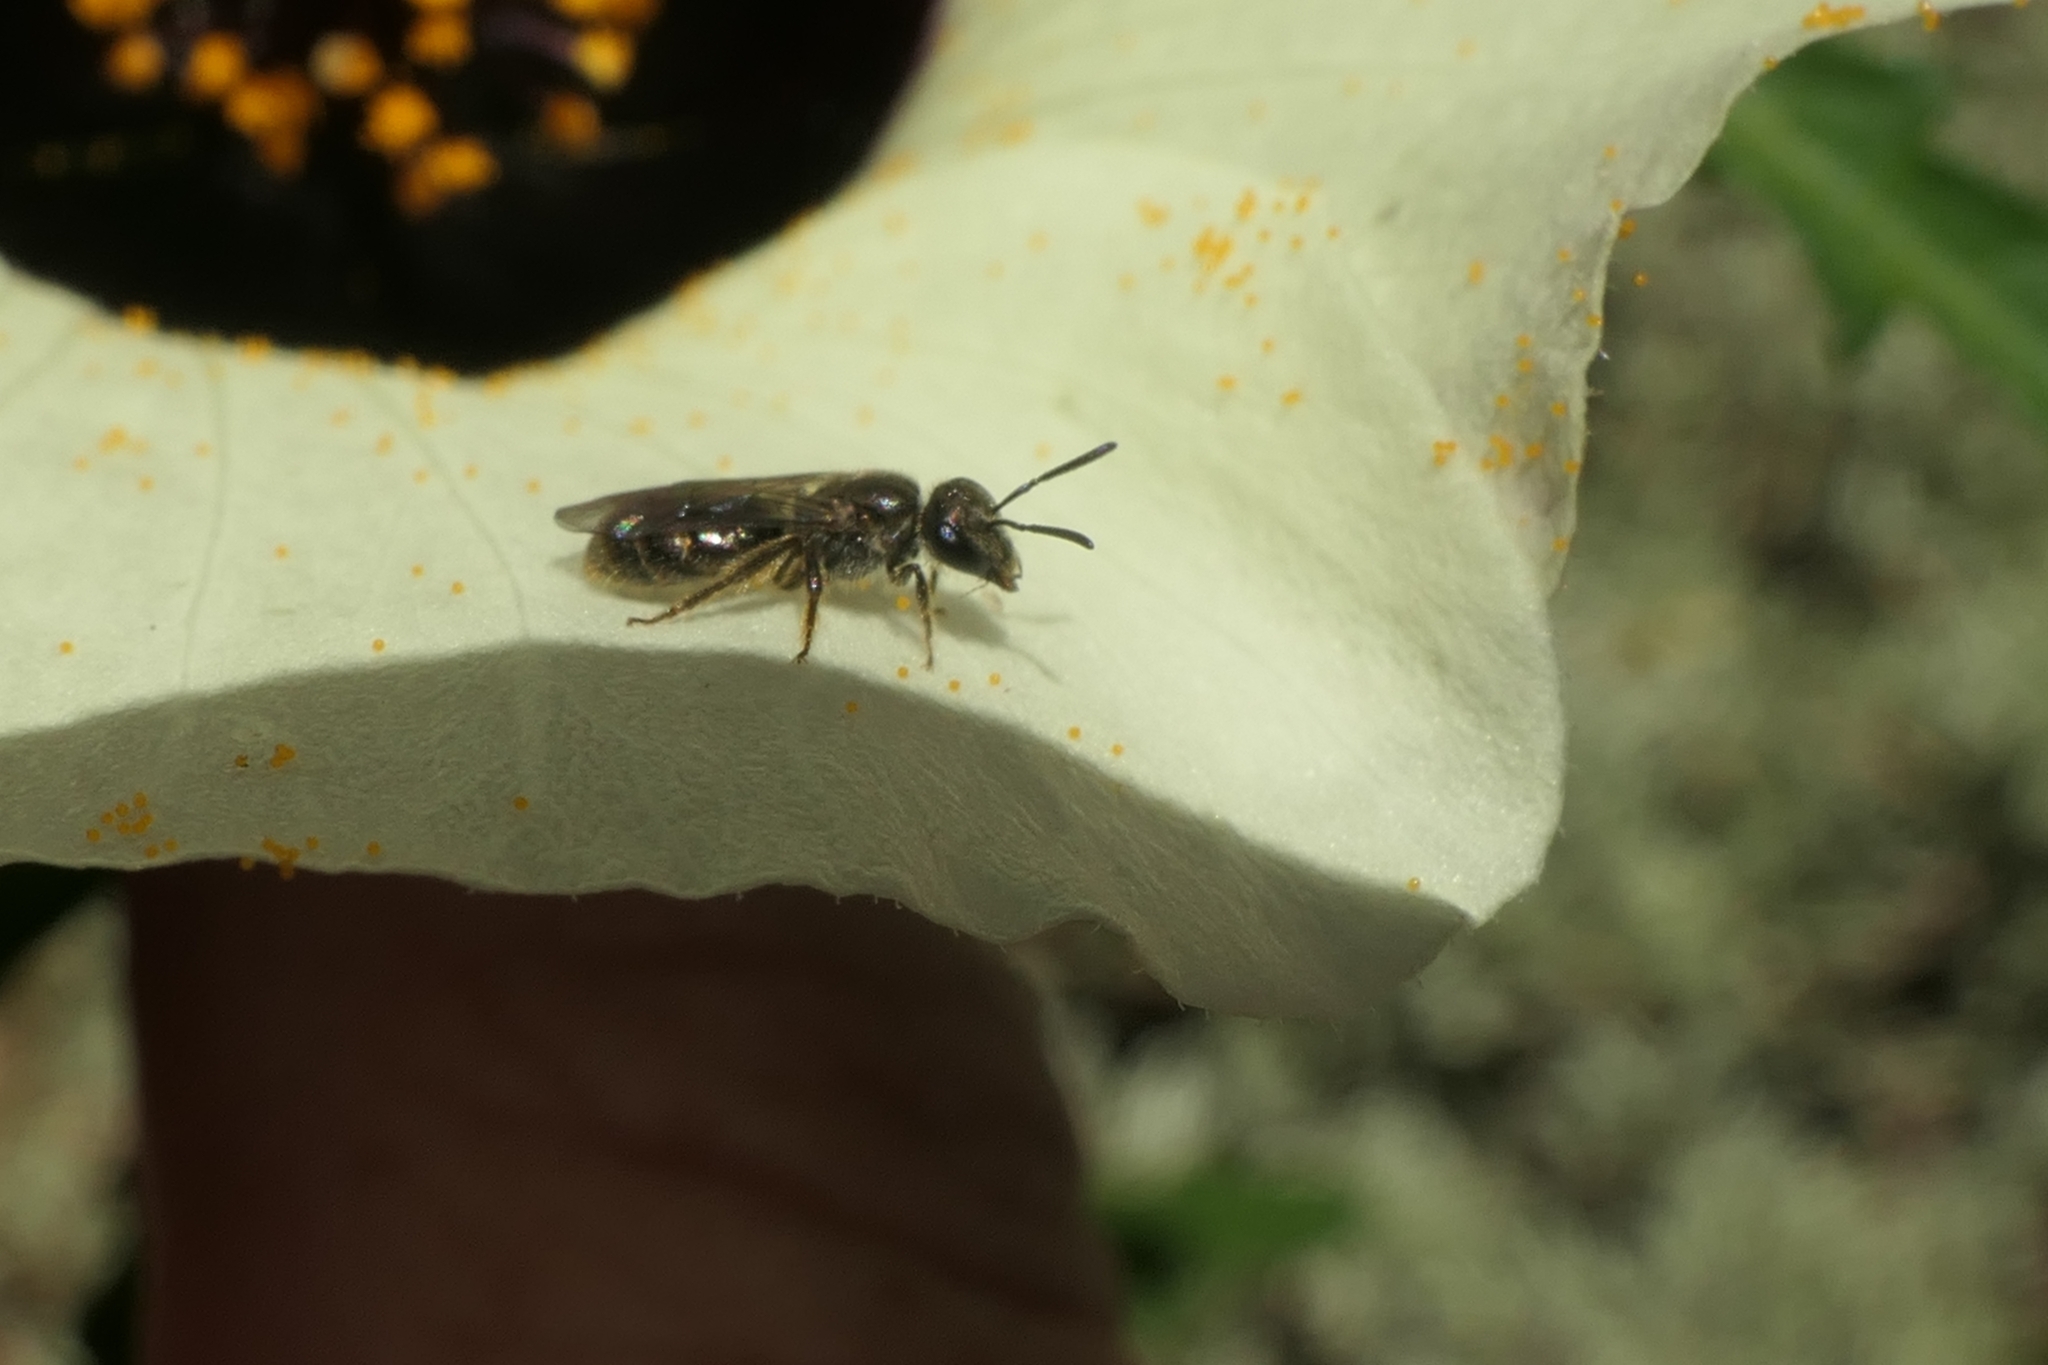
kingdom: Animalia
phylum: Arthropoda
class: Insecta
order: Hymenoptera
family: Halictidae
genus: Lasioglossum
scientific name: Lasioglossum sordidum
